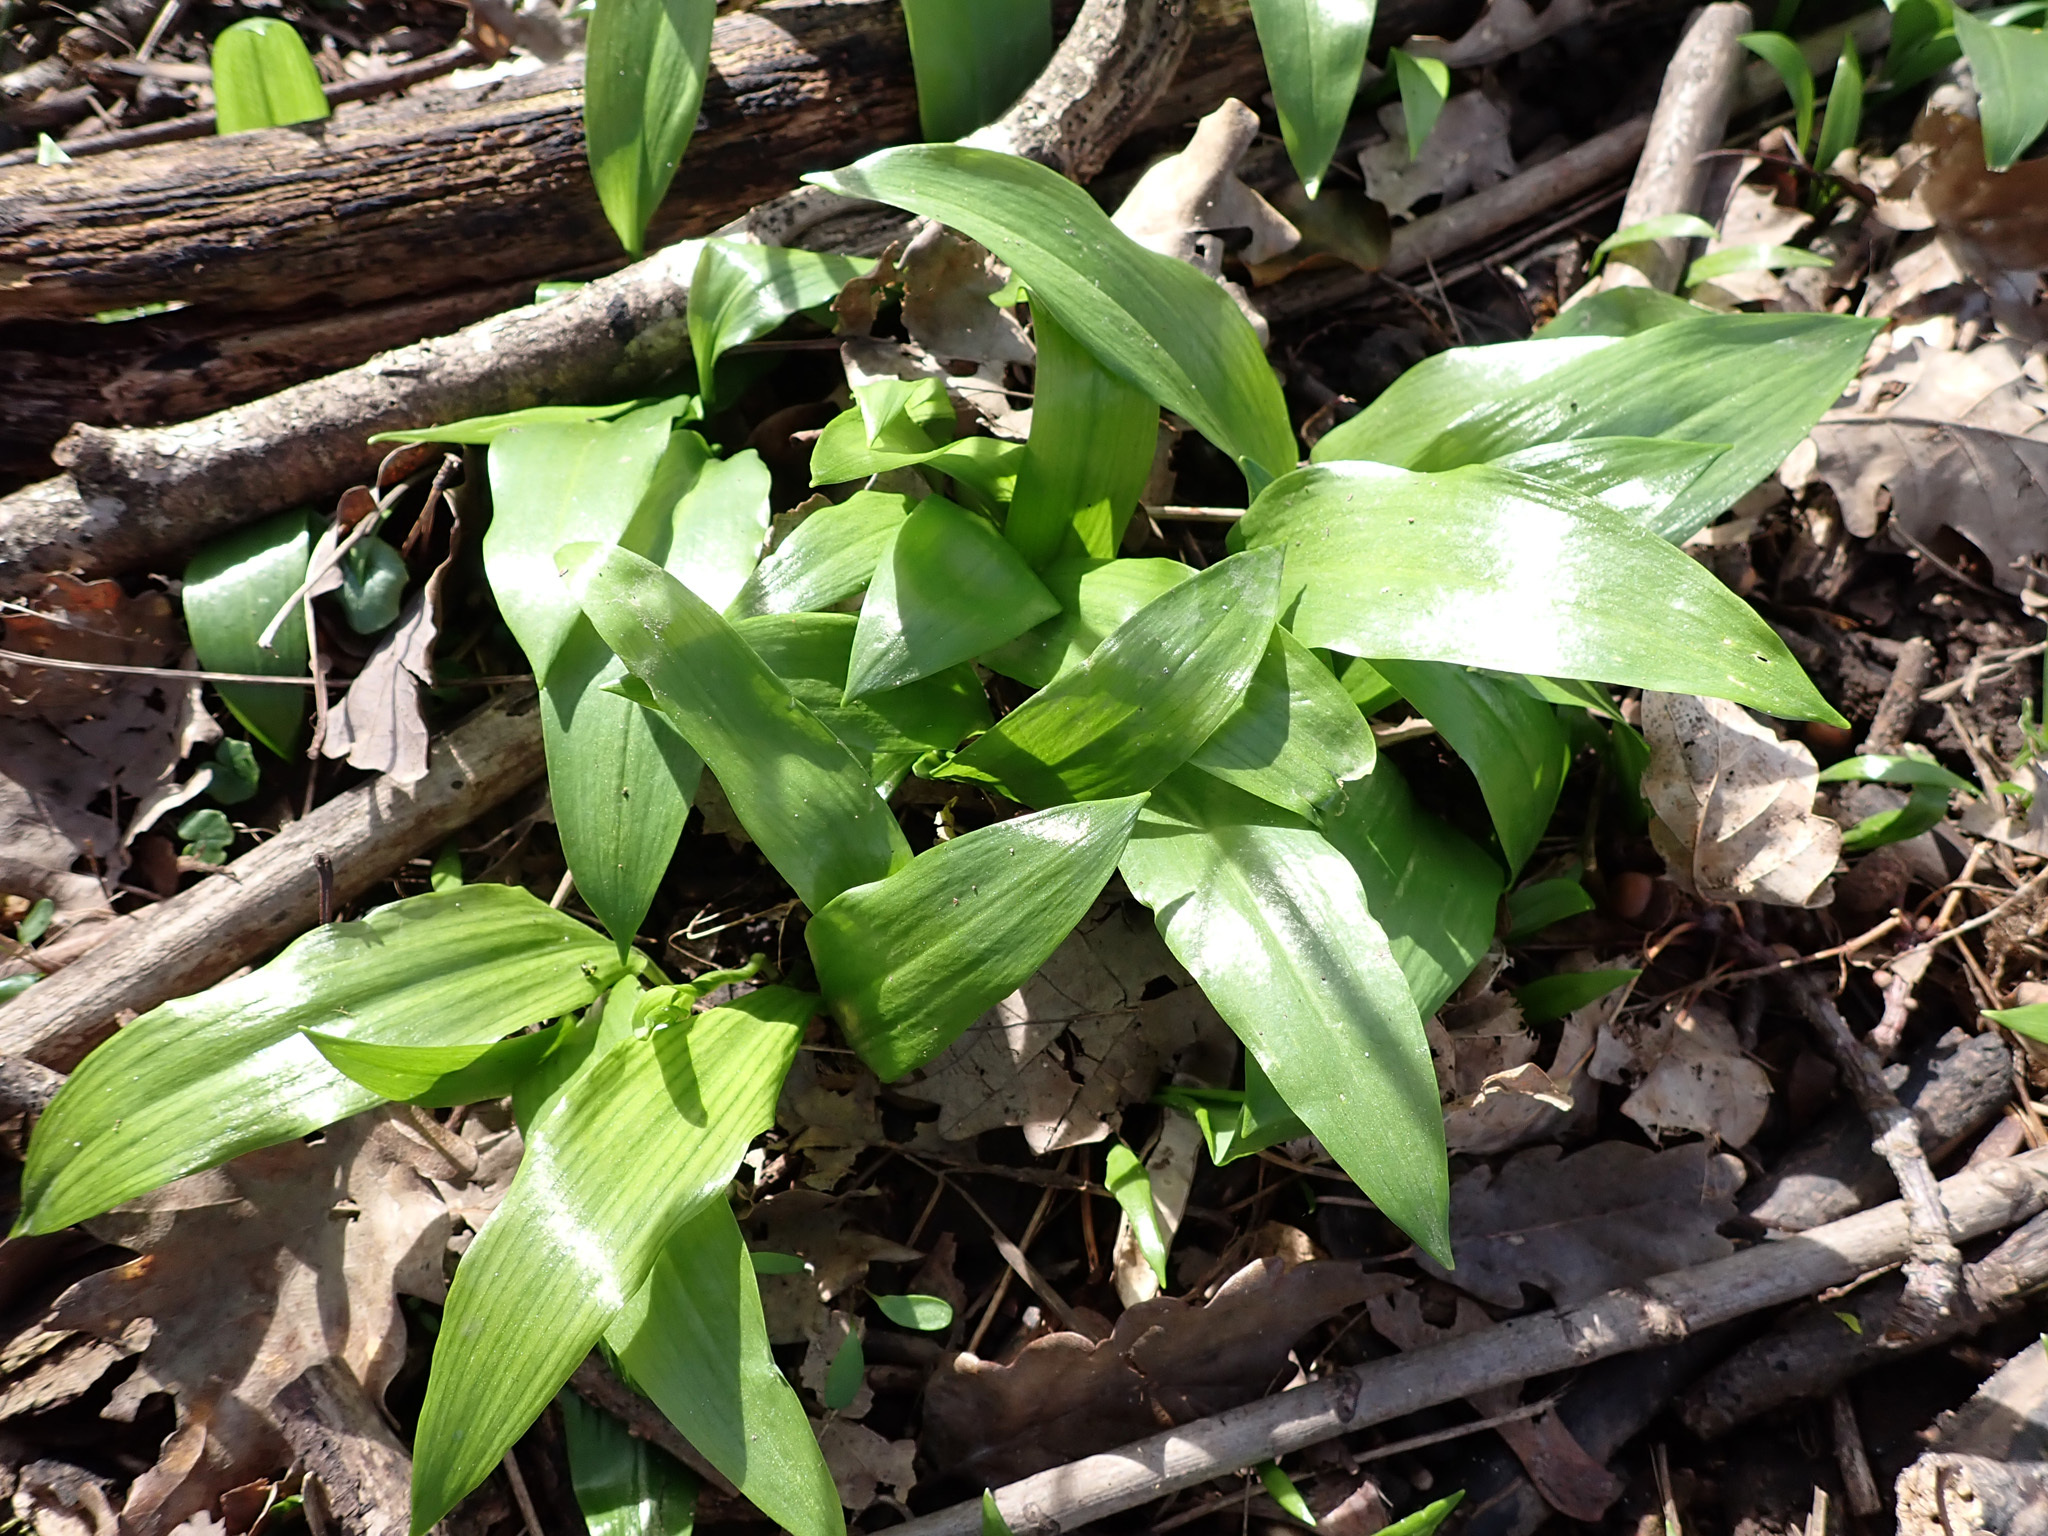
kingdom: Plantae
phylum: Tracheophyta
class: Liliopsida
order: Asparagales
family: Amaryllidaceae
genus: Allium
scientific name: Allium ursinum
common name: Ramsons
